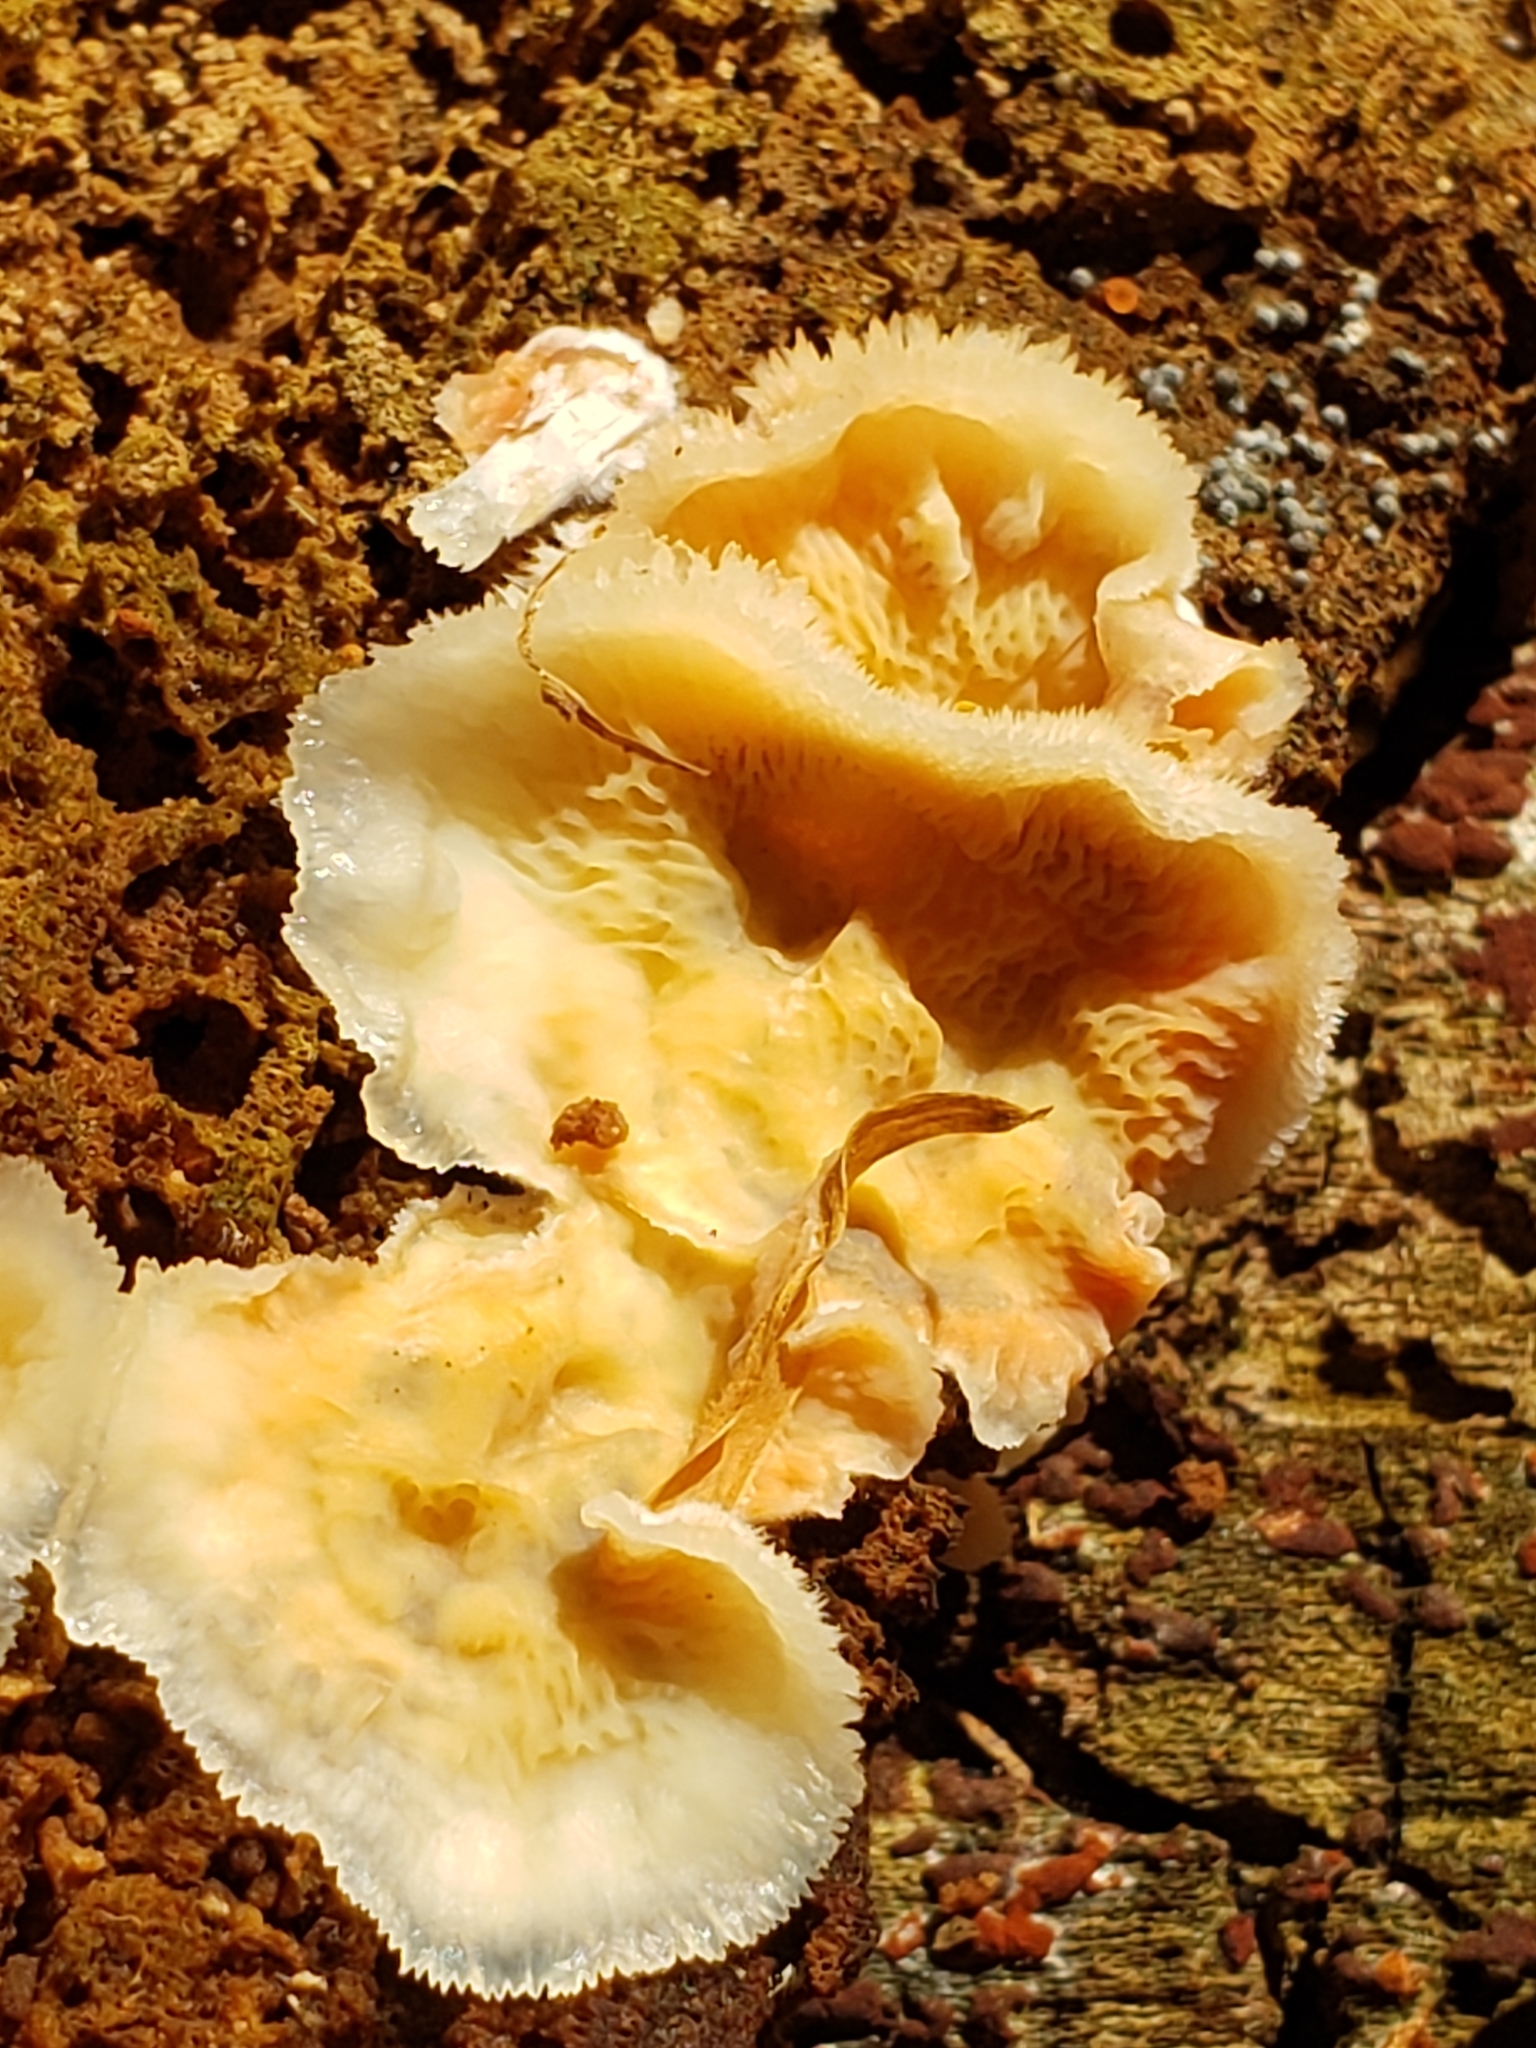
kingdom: Fungi
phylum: Basidiomycota
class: Agaricomycetes
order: Polyporales
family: Meruliaceae
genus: Phlebia
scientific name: Phlebia tremellosa
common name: Jelly rot
